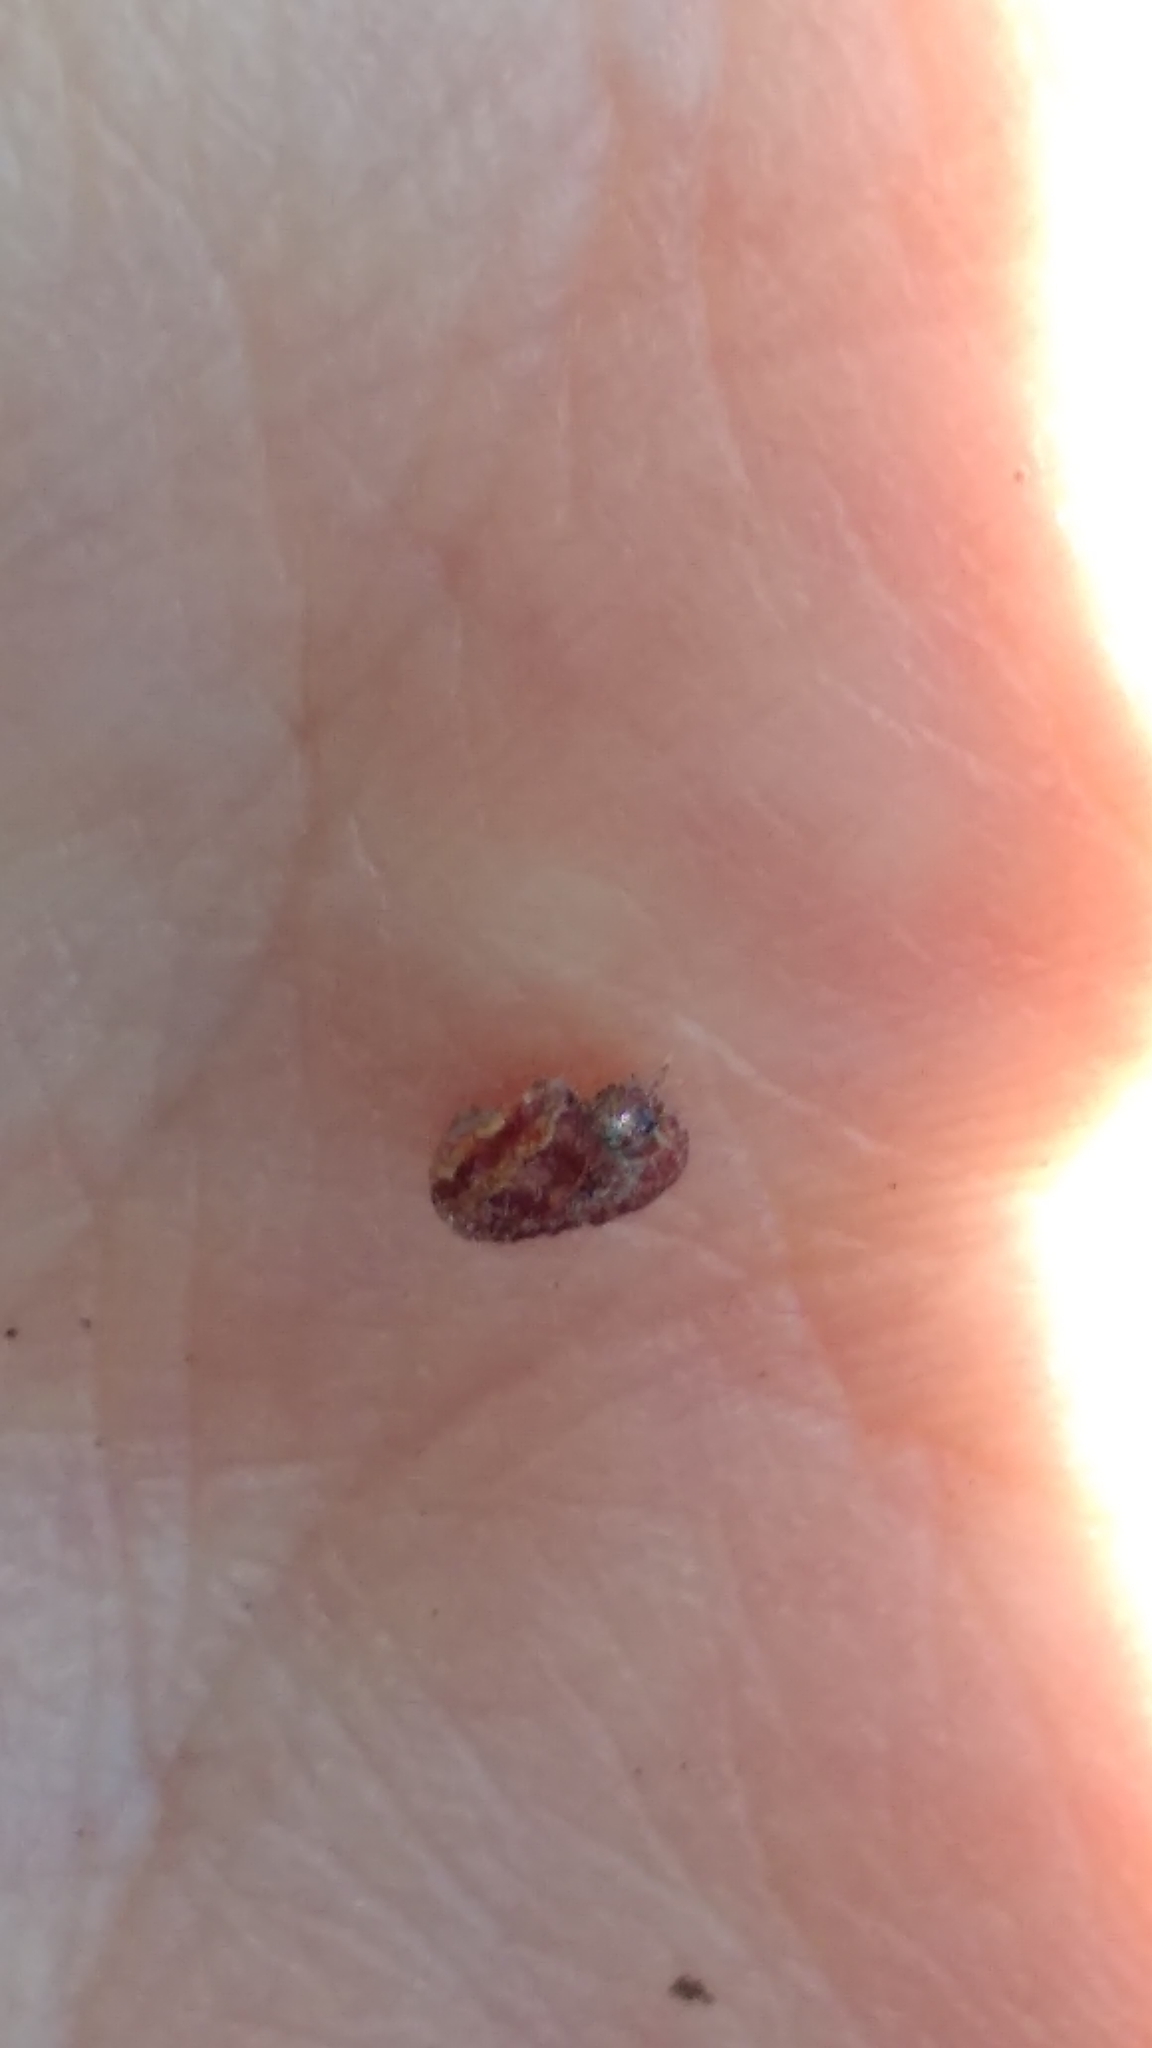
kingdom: Animalia
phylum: Arthropoda
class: Insecta
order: Lepidoptera
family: Noctuidae
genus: Agrochola
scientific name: Agrochola bicolorago
